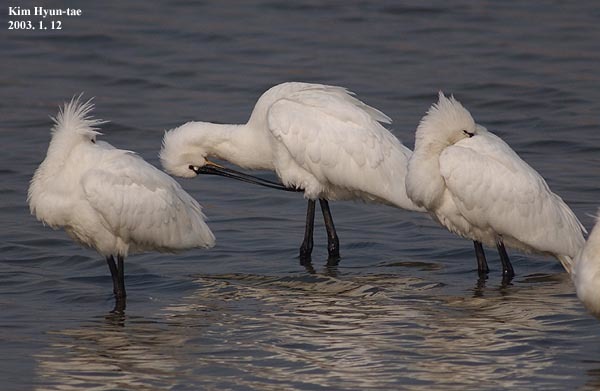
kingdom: Animalia
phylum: Chordata
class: Aves
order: Pelecaniformes
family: Threskiornithidae
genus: Platalea
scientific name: Platalea leucorodia
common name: Eurasian spoonbill
